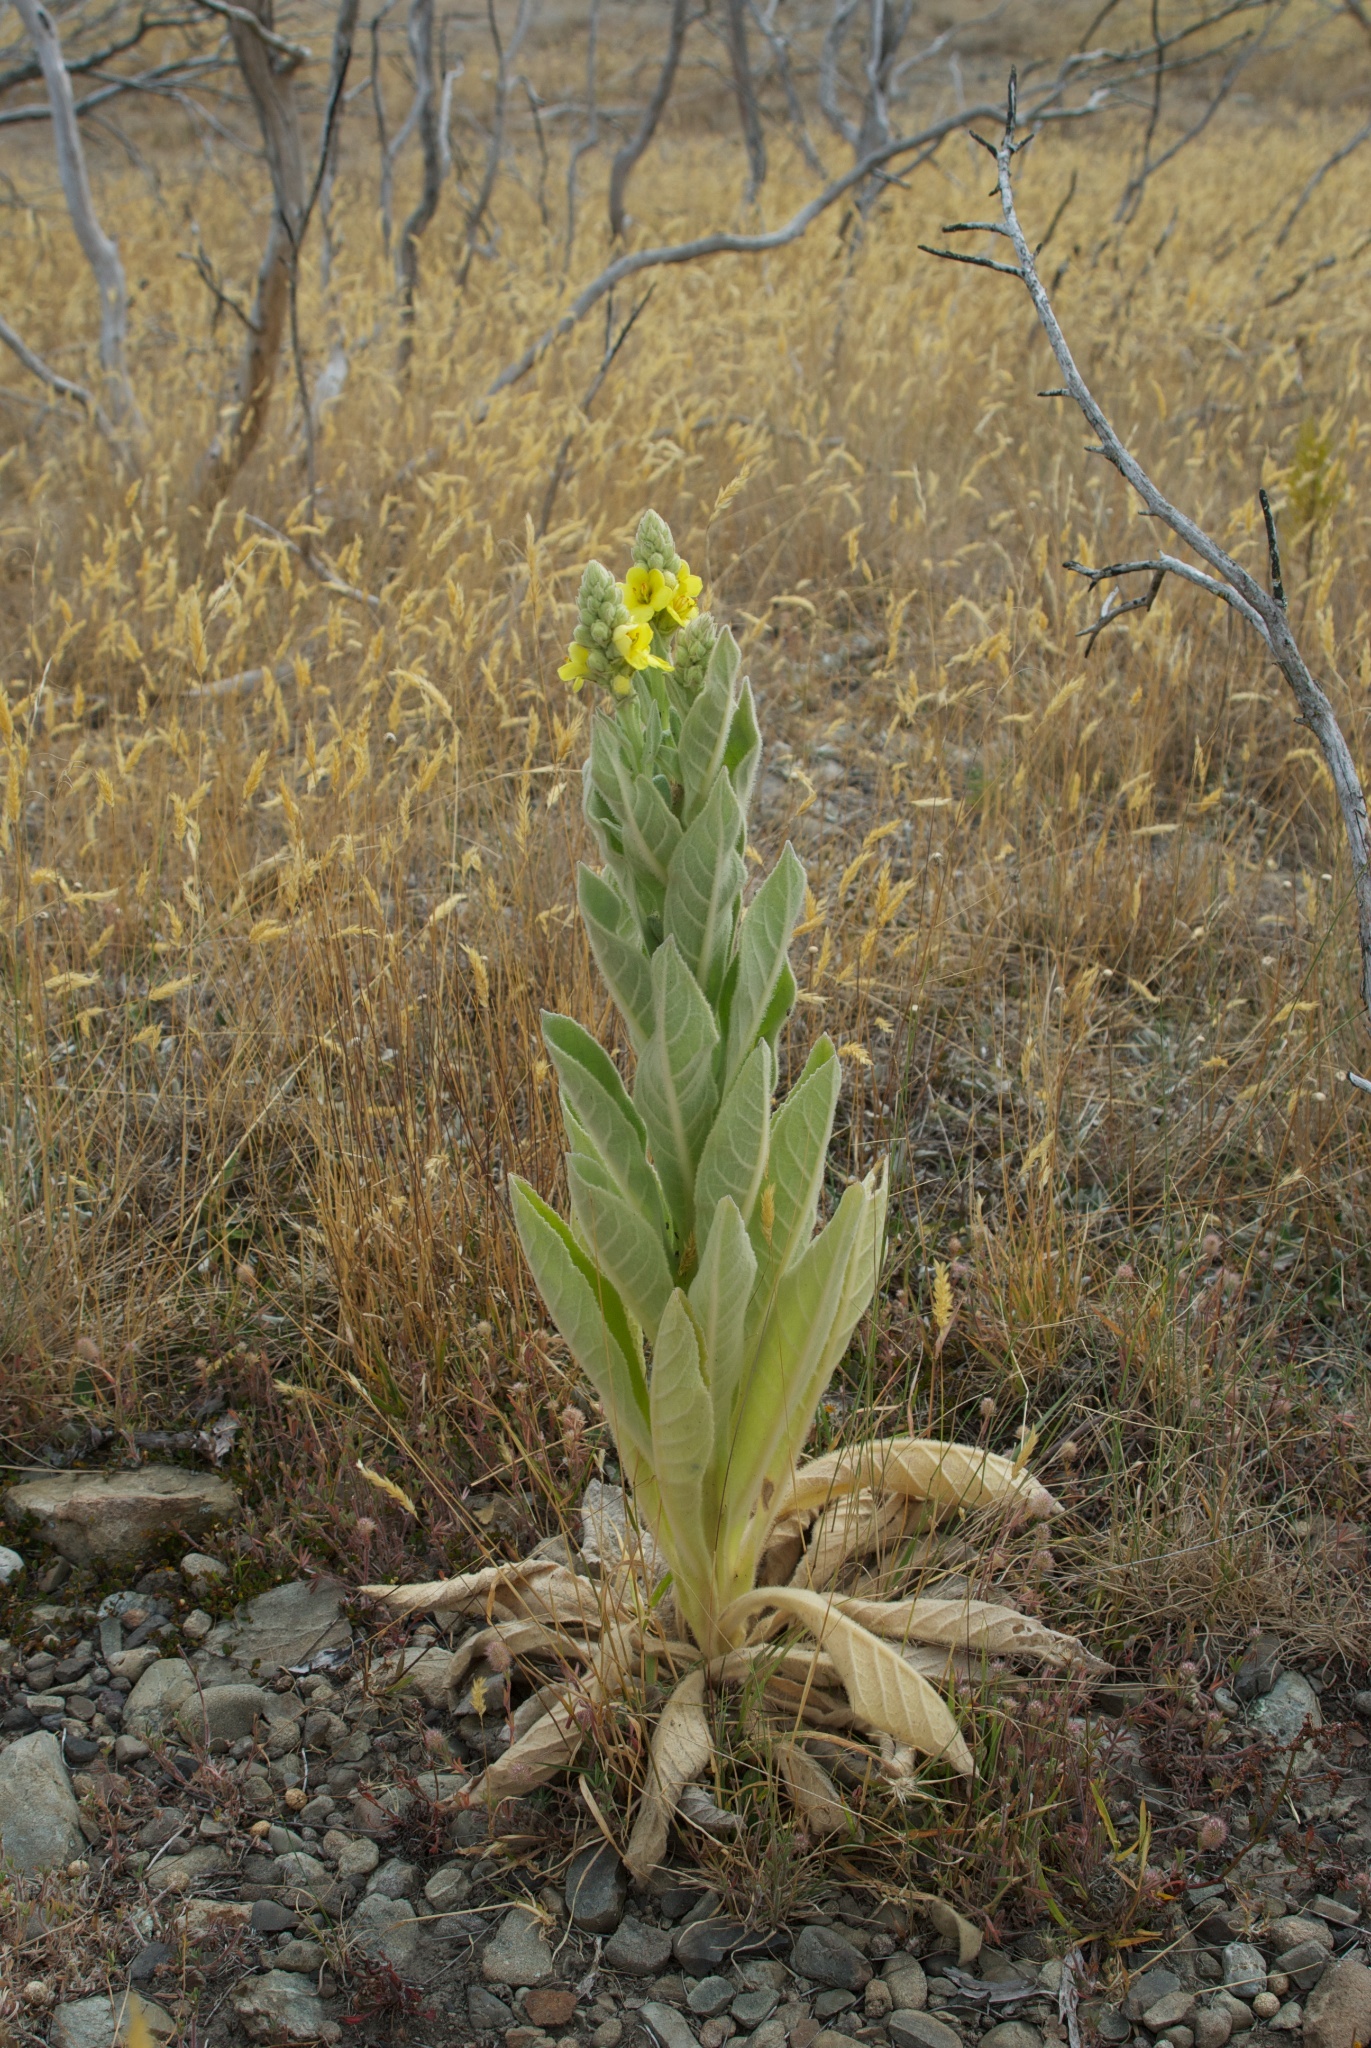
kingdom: Plantae
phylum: Tracheophyta
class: Magnoliopsida
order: Lamiales
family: Scrophulariaceae
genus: Verbascum
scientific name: Verbascum thapsus
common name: Common mullein
